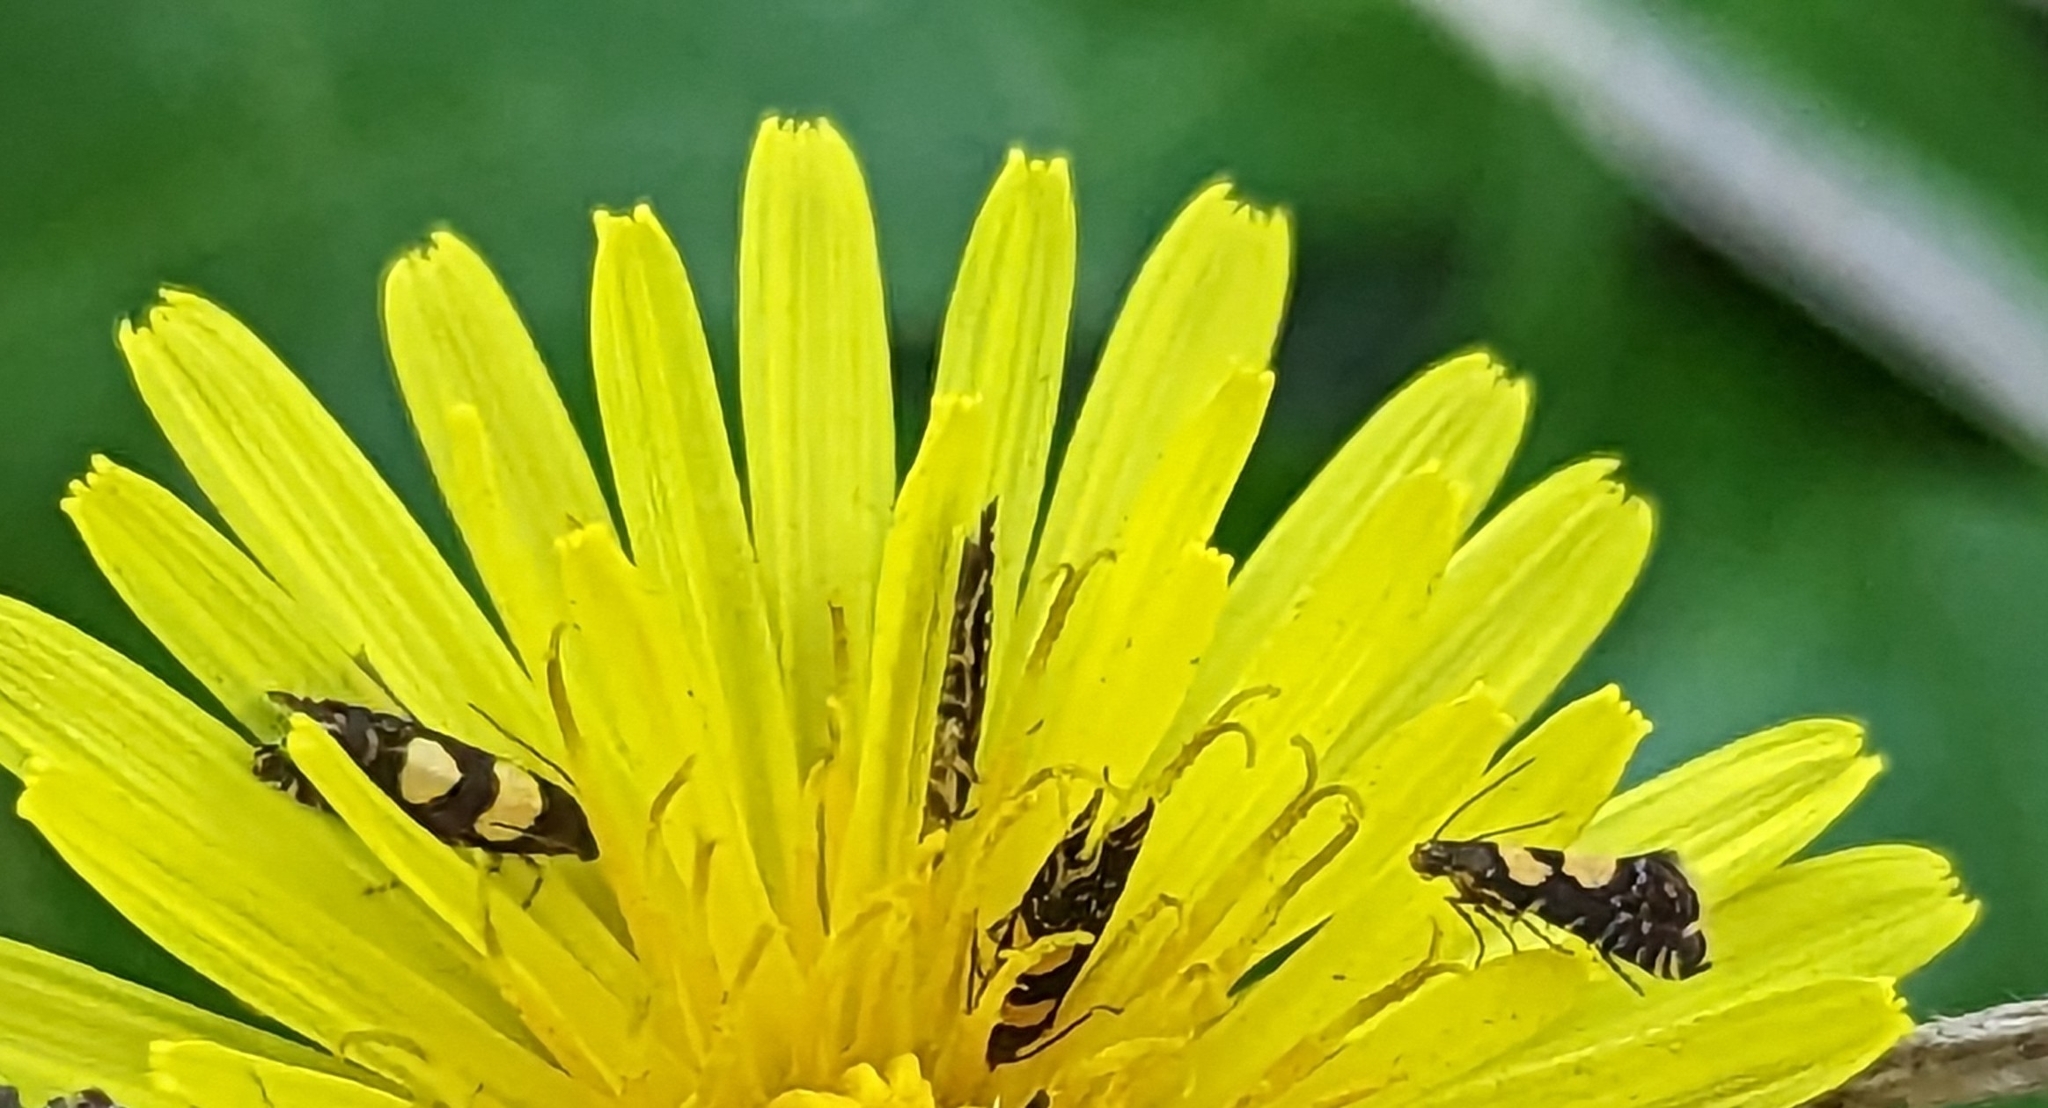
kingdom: Animalia
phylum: Arthropoda
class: Insecta
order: Lepidoptera
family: Glyphipterigidae
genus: Glyphipterix
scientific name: Glyphipterix chrysoplanetis
